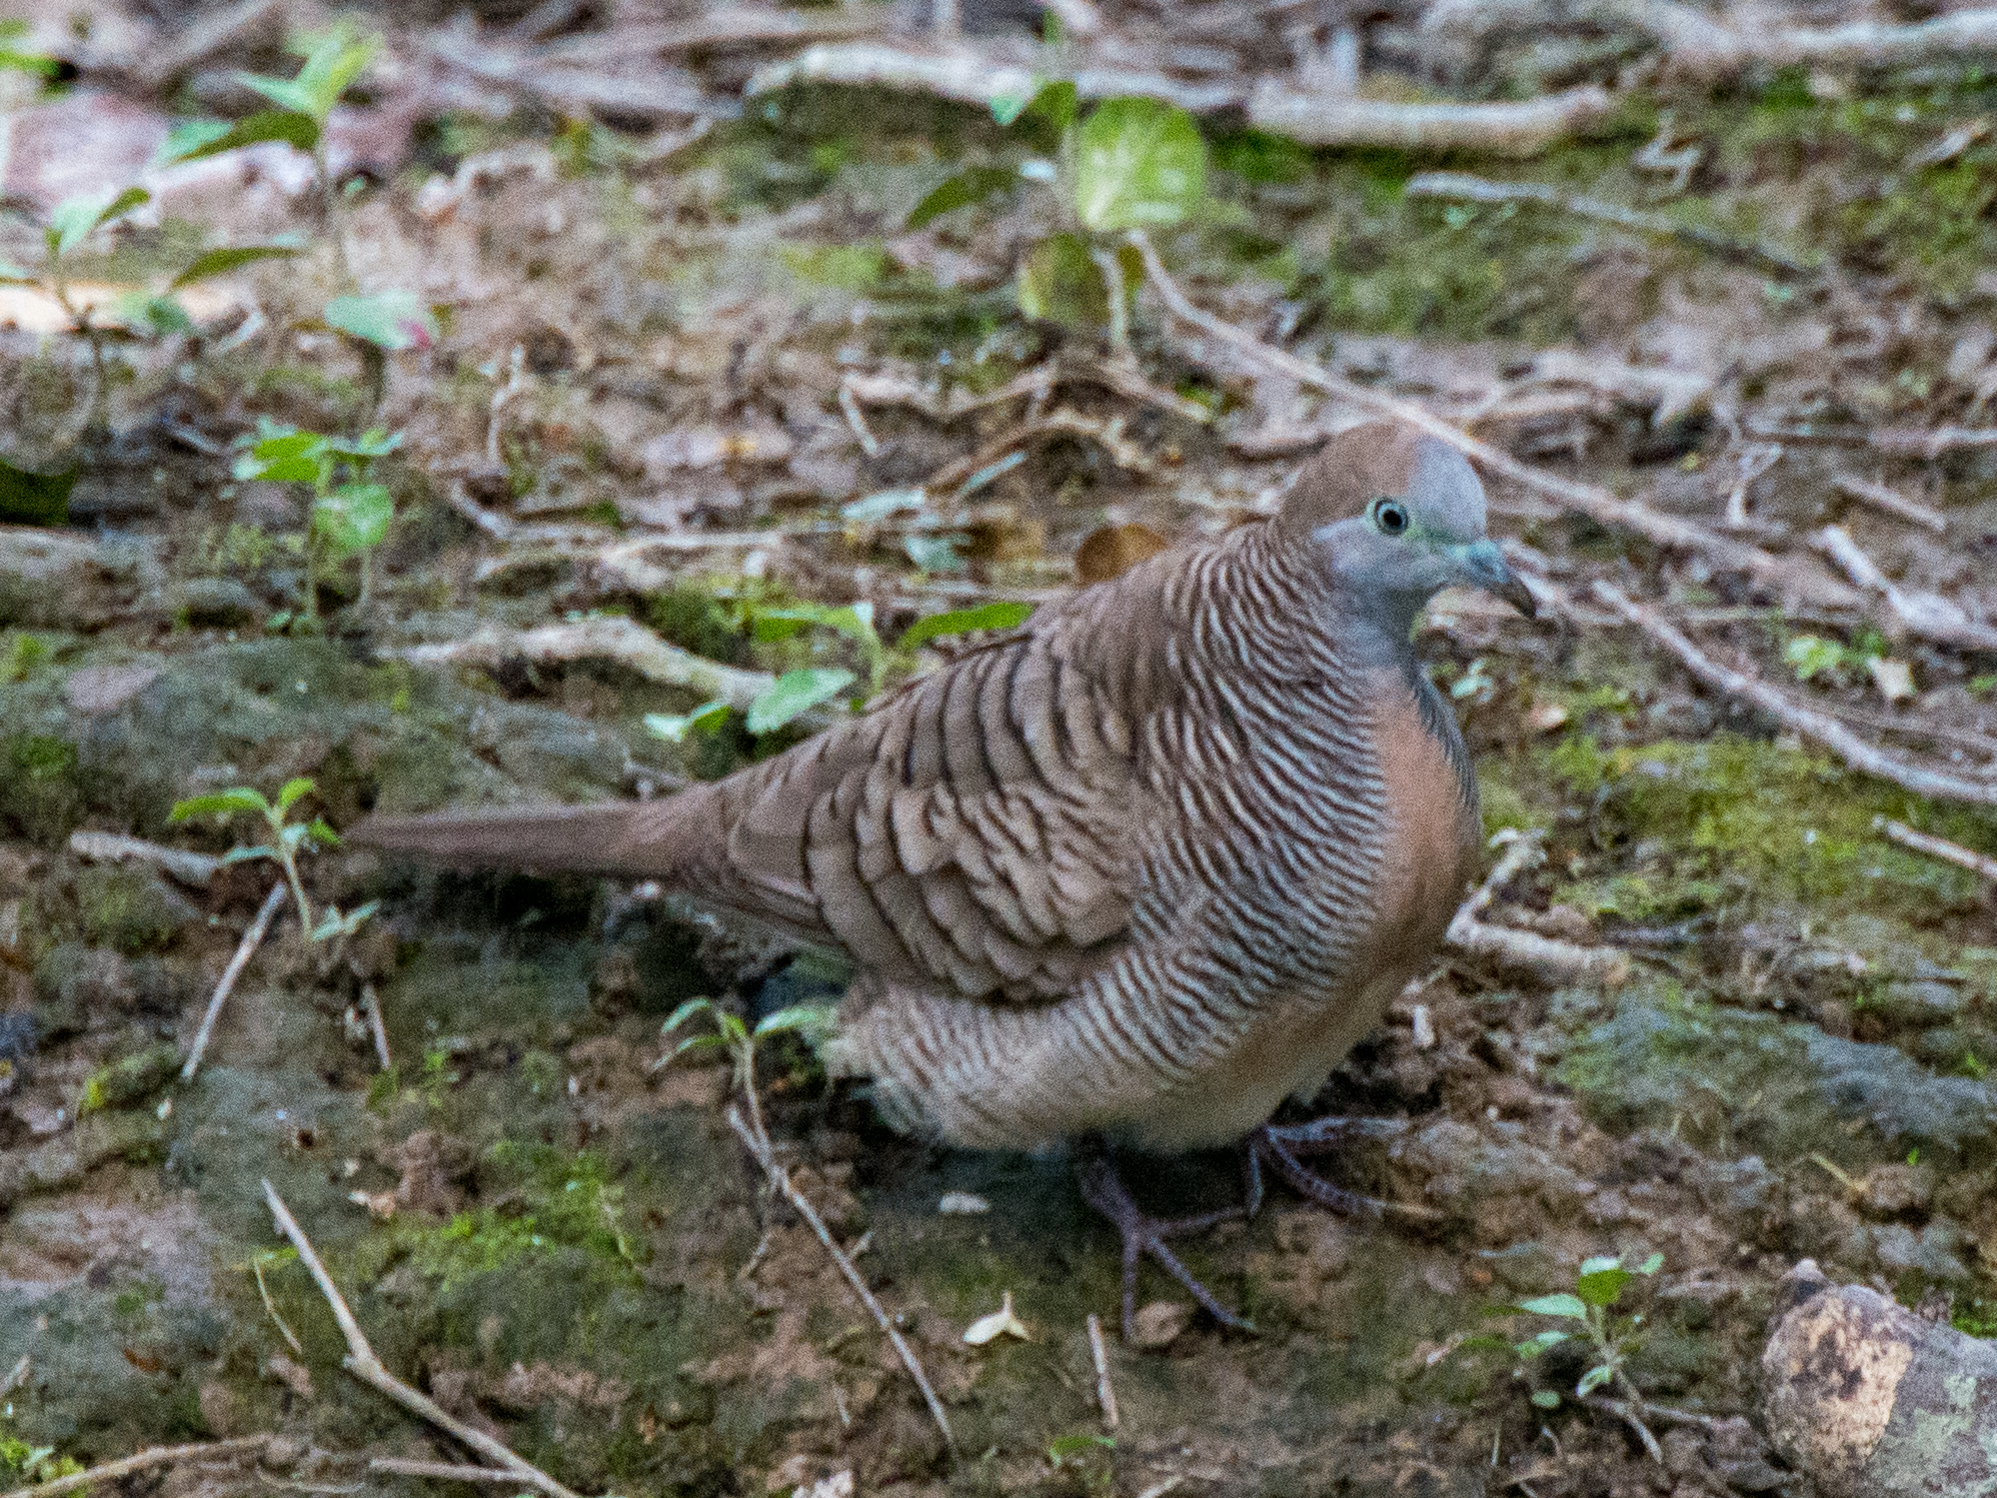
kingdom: Animalia
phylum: Chordata
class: Aves
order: Columbiformes
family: Columbidae
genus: Geopelia
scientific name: Geopelia striata
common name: Zebra dove
